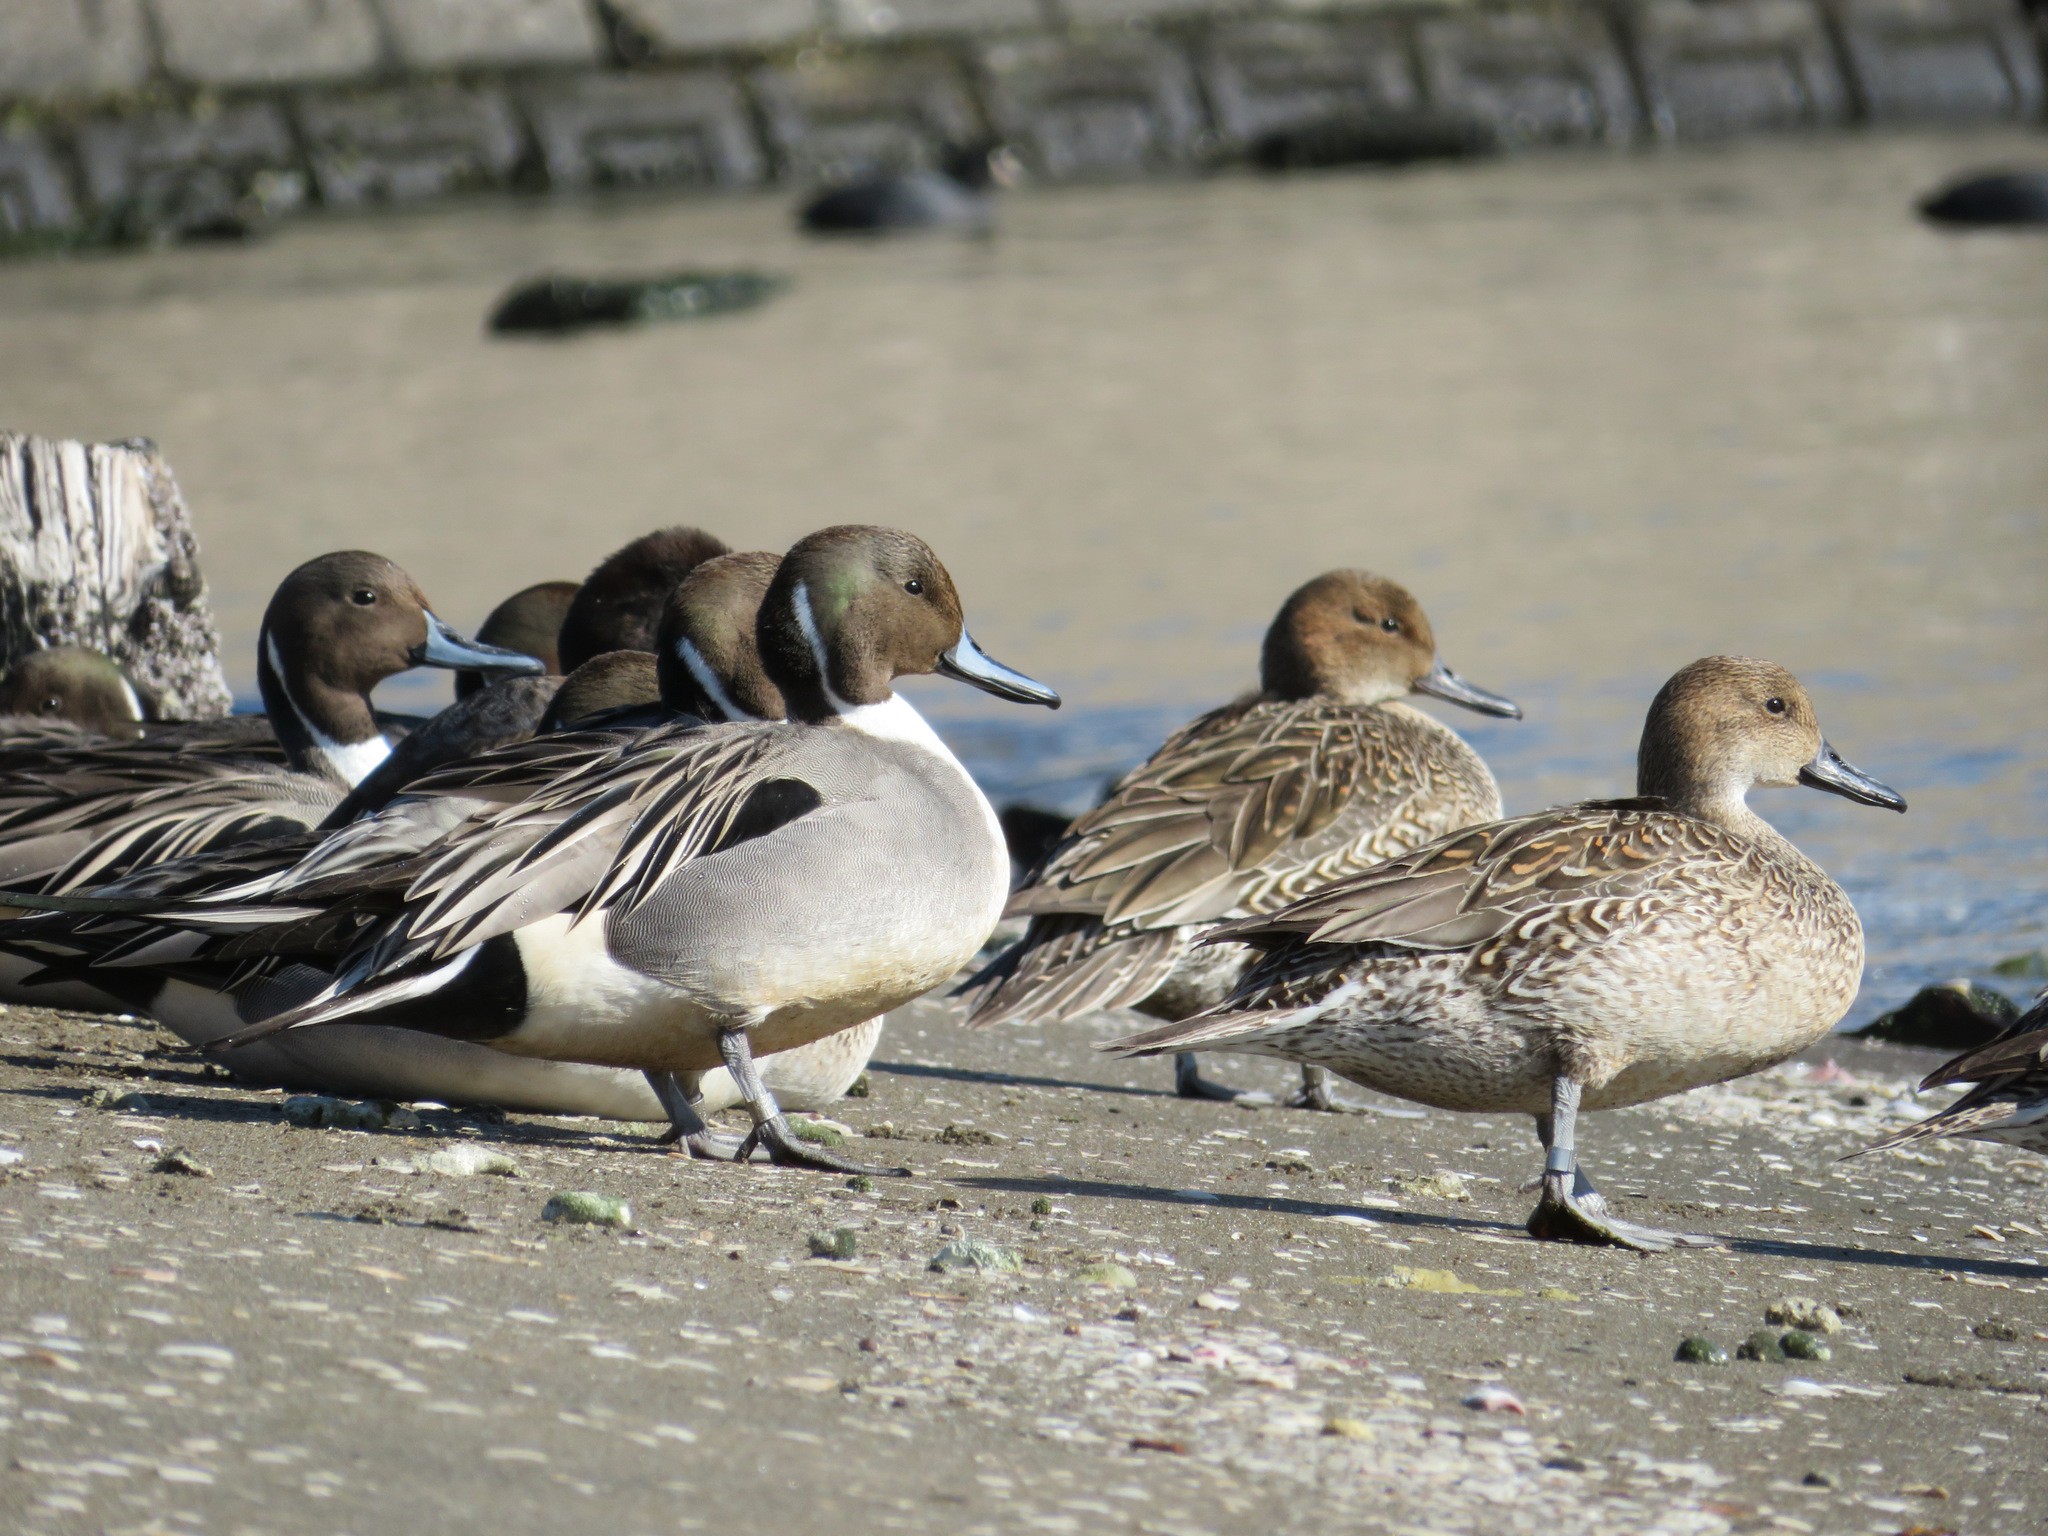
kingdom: Animalia
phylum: Chordata
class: Aves
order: Anseriformes
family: Anatidae
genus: Anas
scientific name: Anas acuta
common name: Northern pintail
